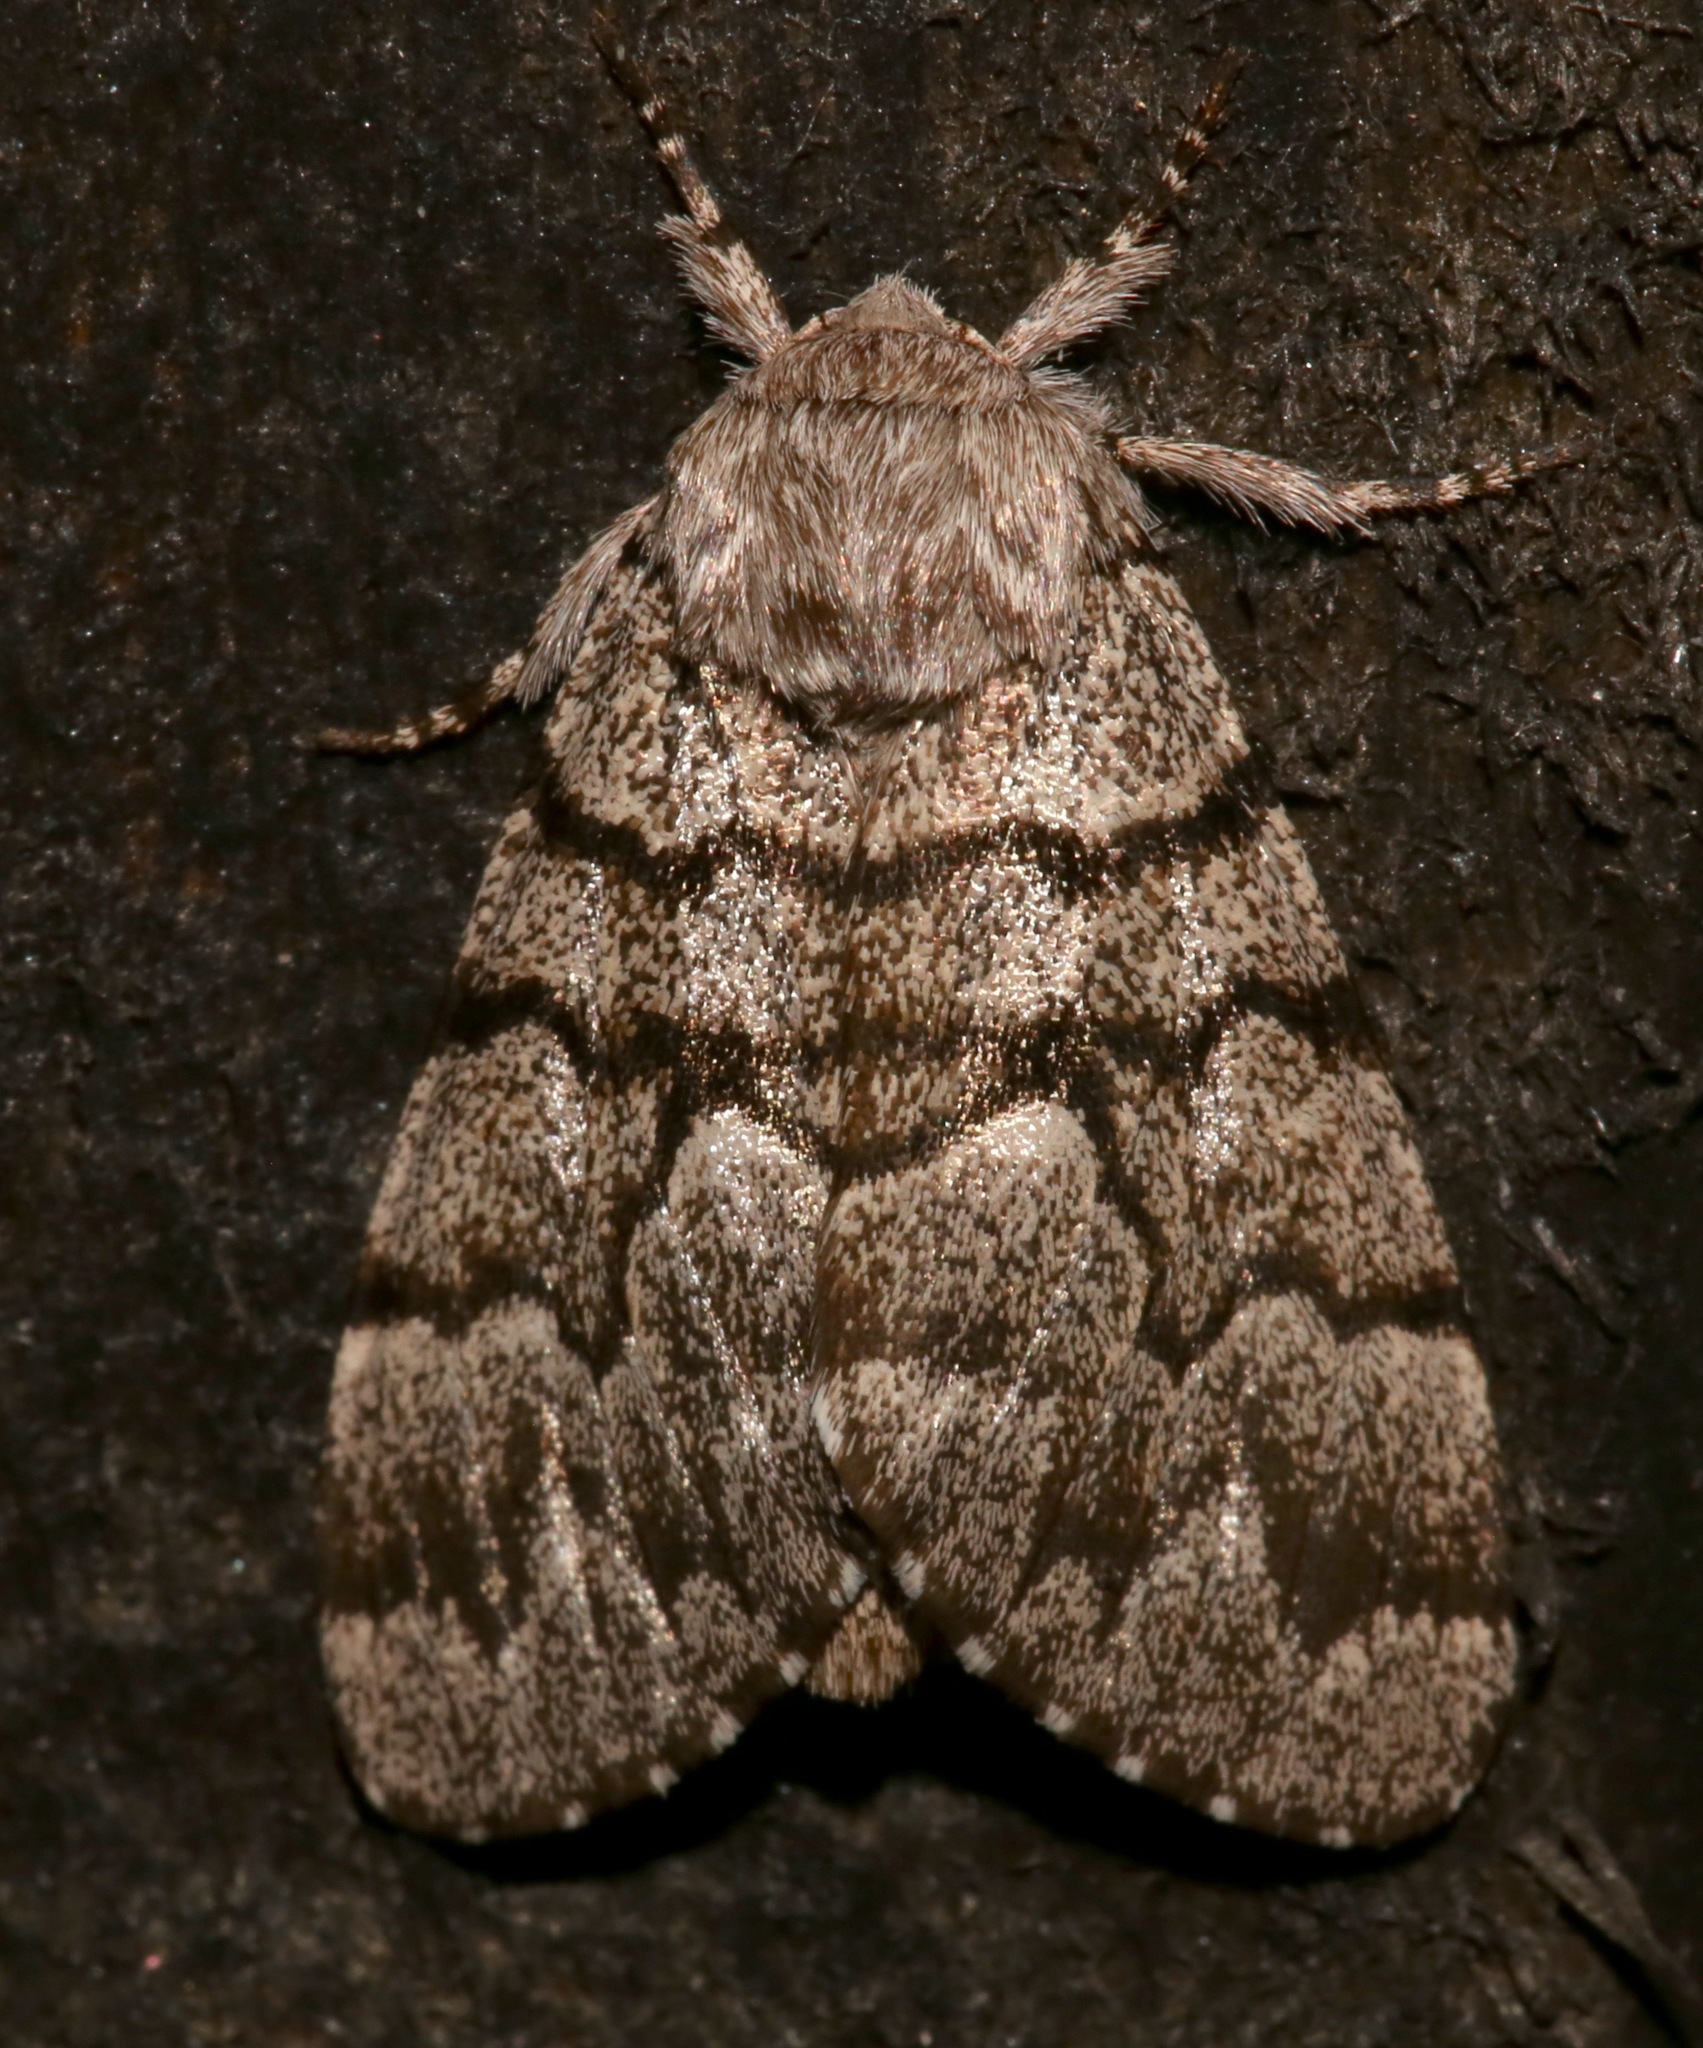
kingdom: Animalia
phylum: Arthropoda
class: Insecta
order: Lepidoptera
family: Noctuidae
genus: Panthea
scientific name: Panthea furcilla
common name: Eastern panthea moth
